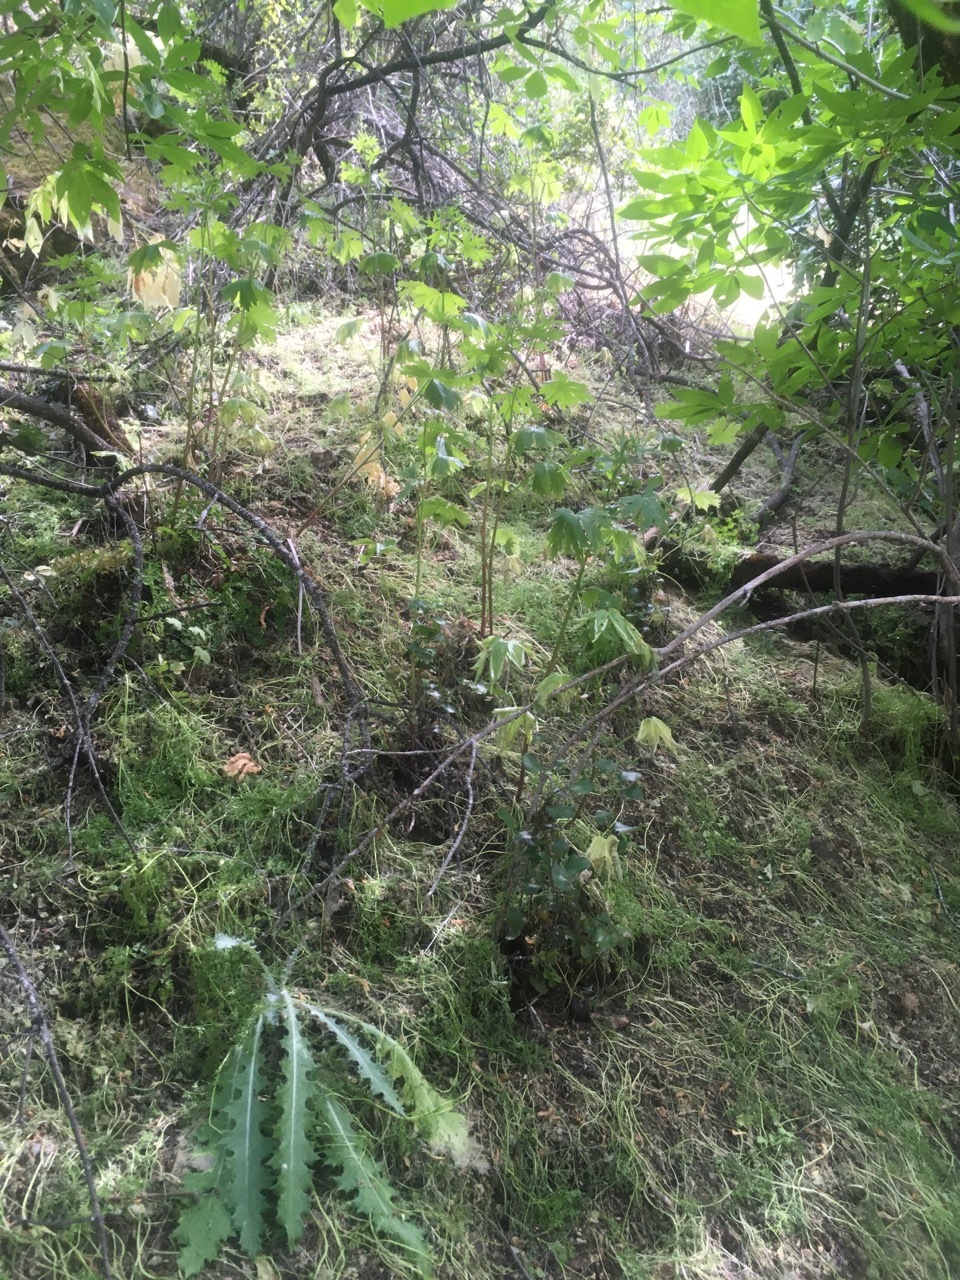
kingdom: Plantae
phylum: Tracheophyta
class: Magnoliopsida
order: Ranunculales
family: Ranunculaceae
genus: Delphinium
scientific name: Delphinium californicum
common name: California larkspur
